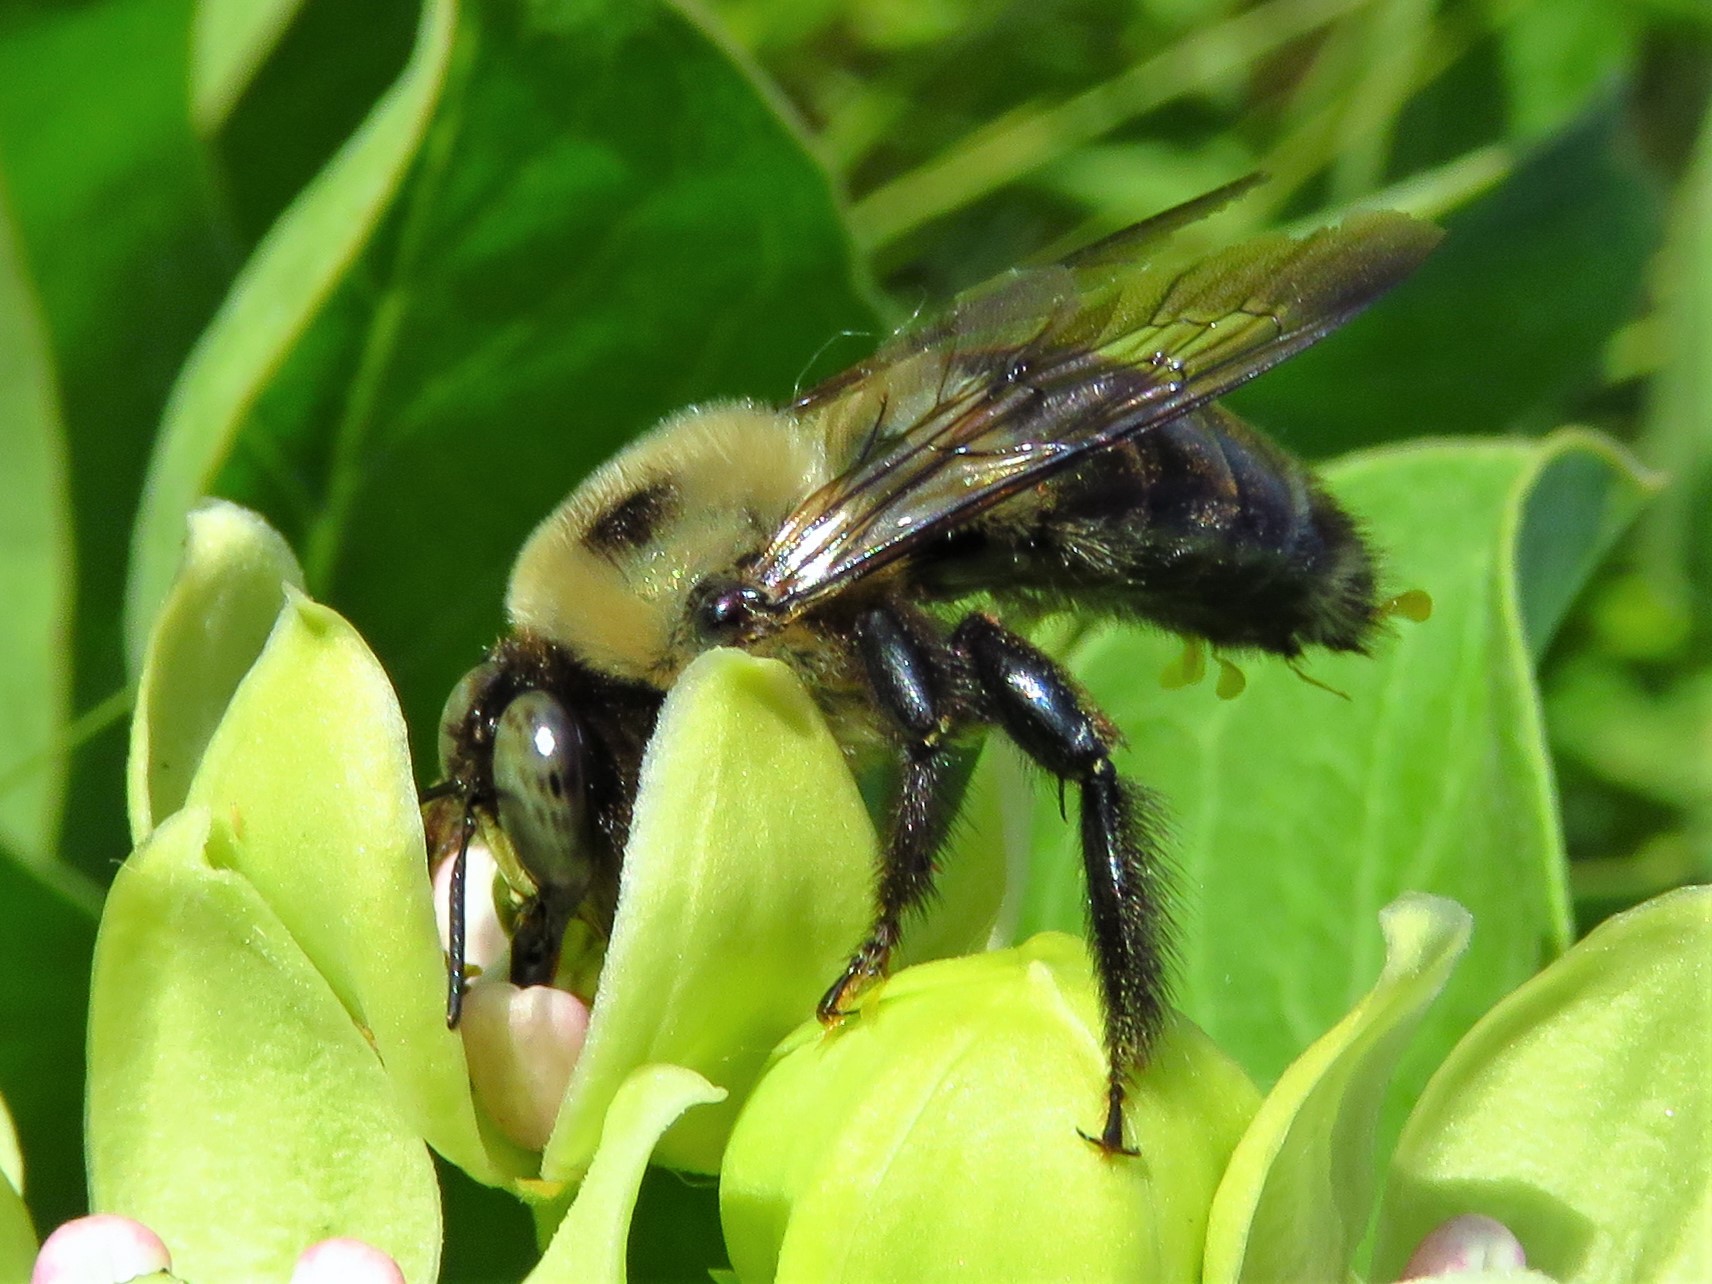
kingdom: Animalia
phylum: Arthropoda
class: Insecta
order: Hymenoptera
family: Apidae
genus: Xylocopa
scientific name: Xylocopa virginica
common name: Carpenter bee
